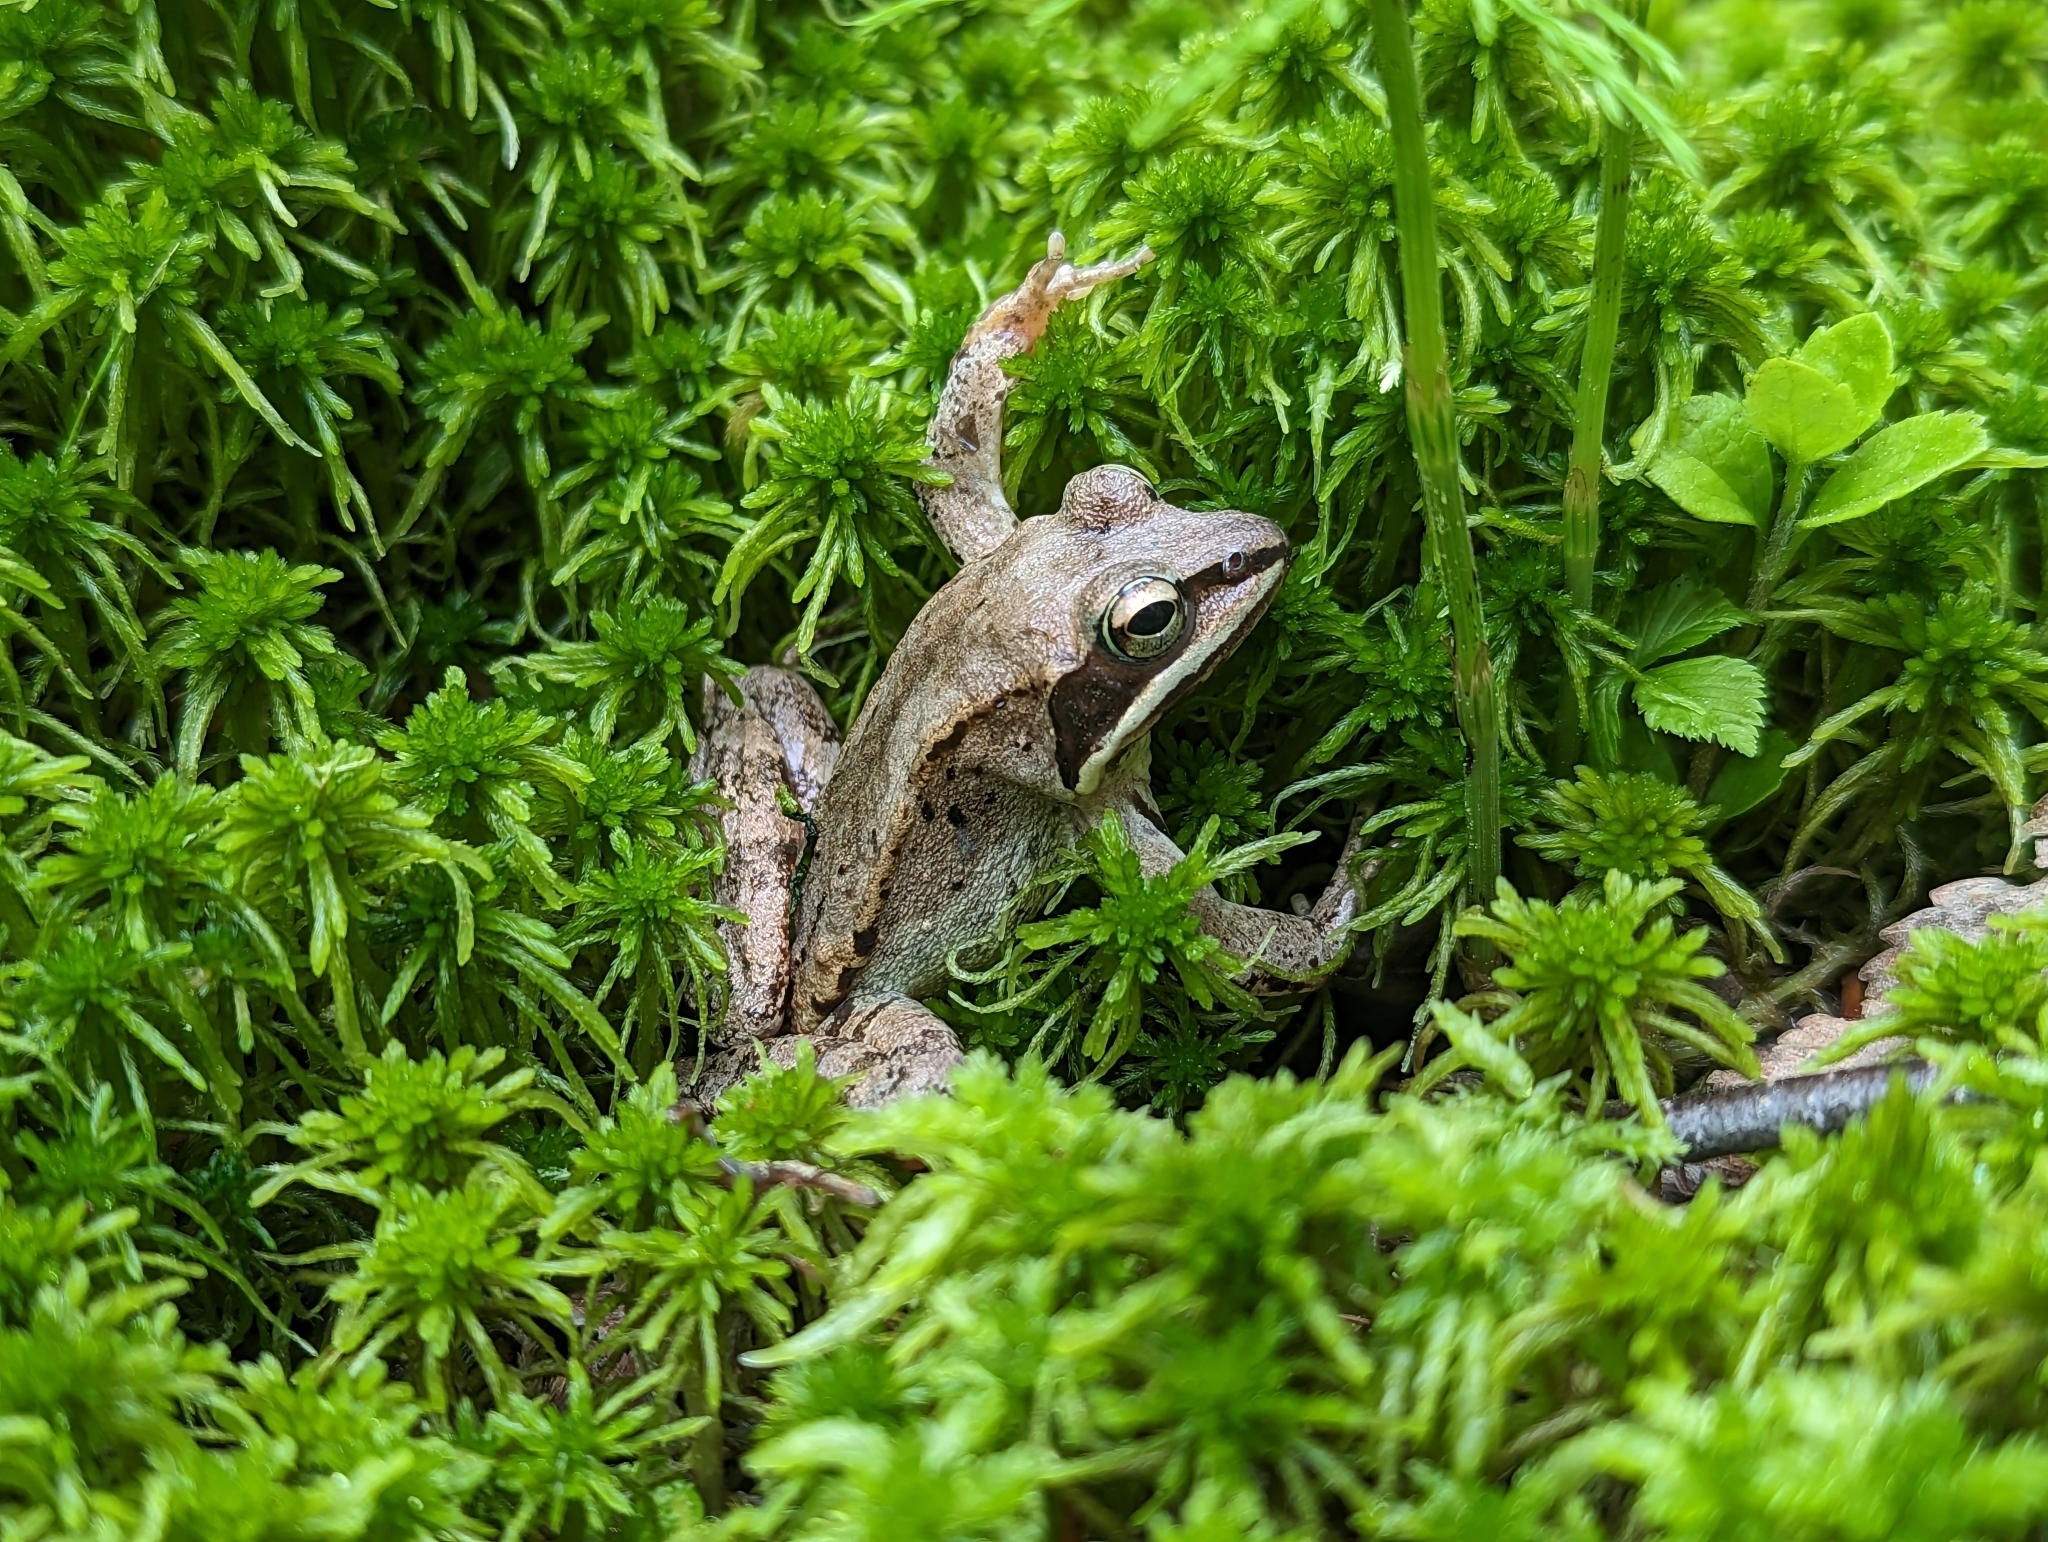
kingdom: Animalia
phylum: Chordata
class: Amphibia
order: Anura
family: Ranidae
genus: Lithobates
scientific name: Lithobates sylvaticus
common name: Wood frog
